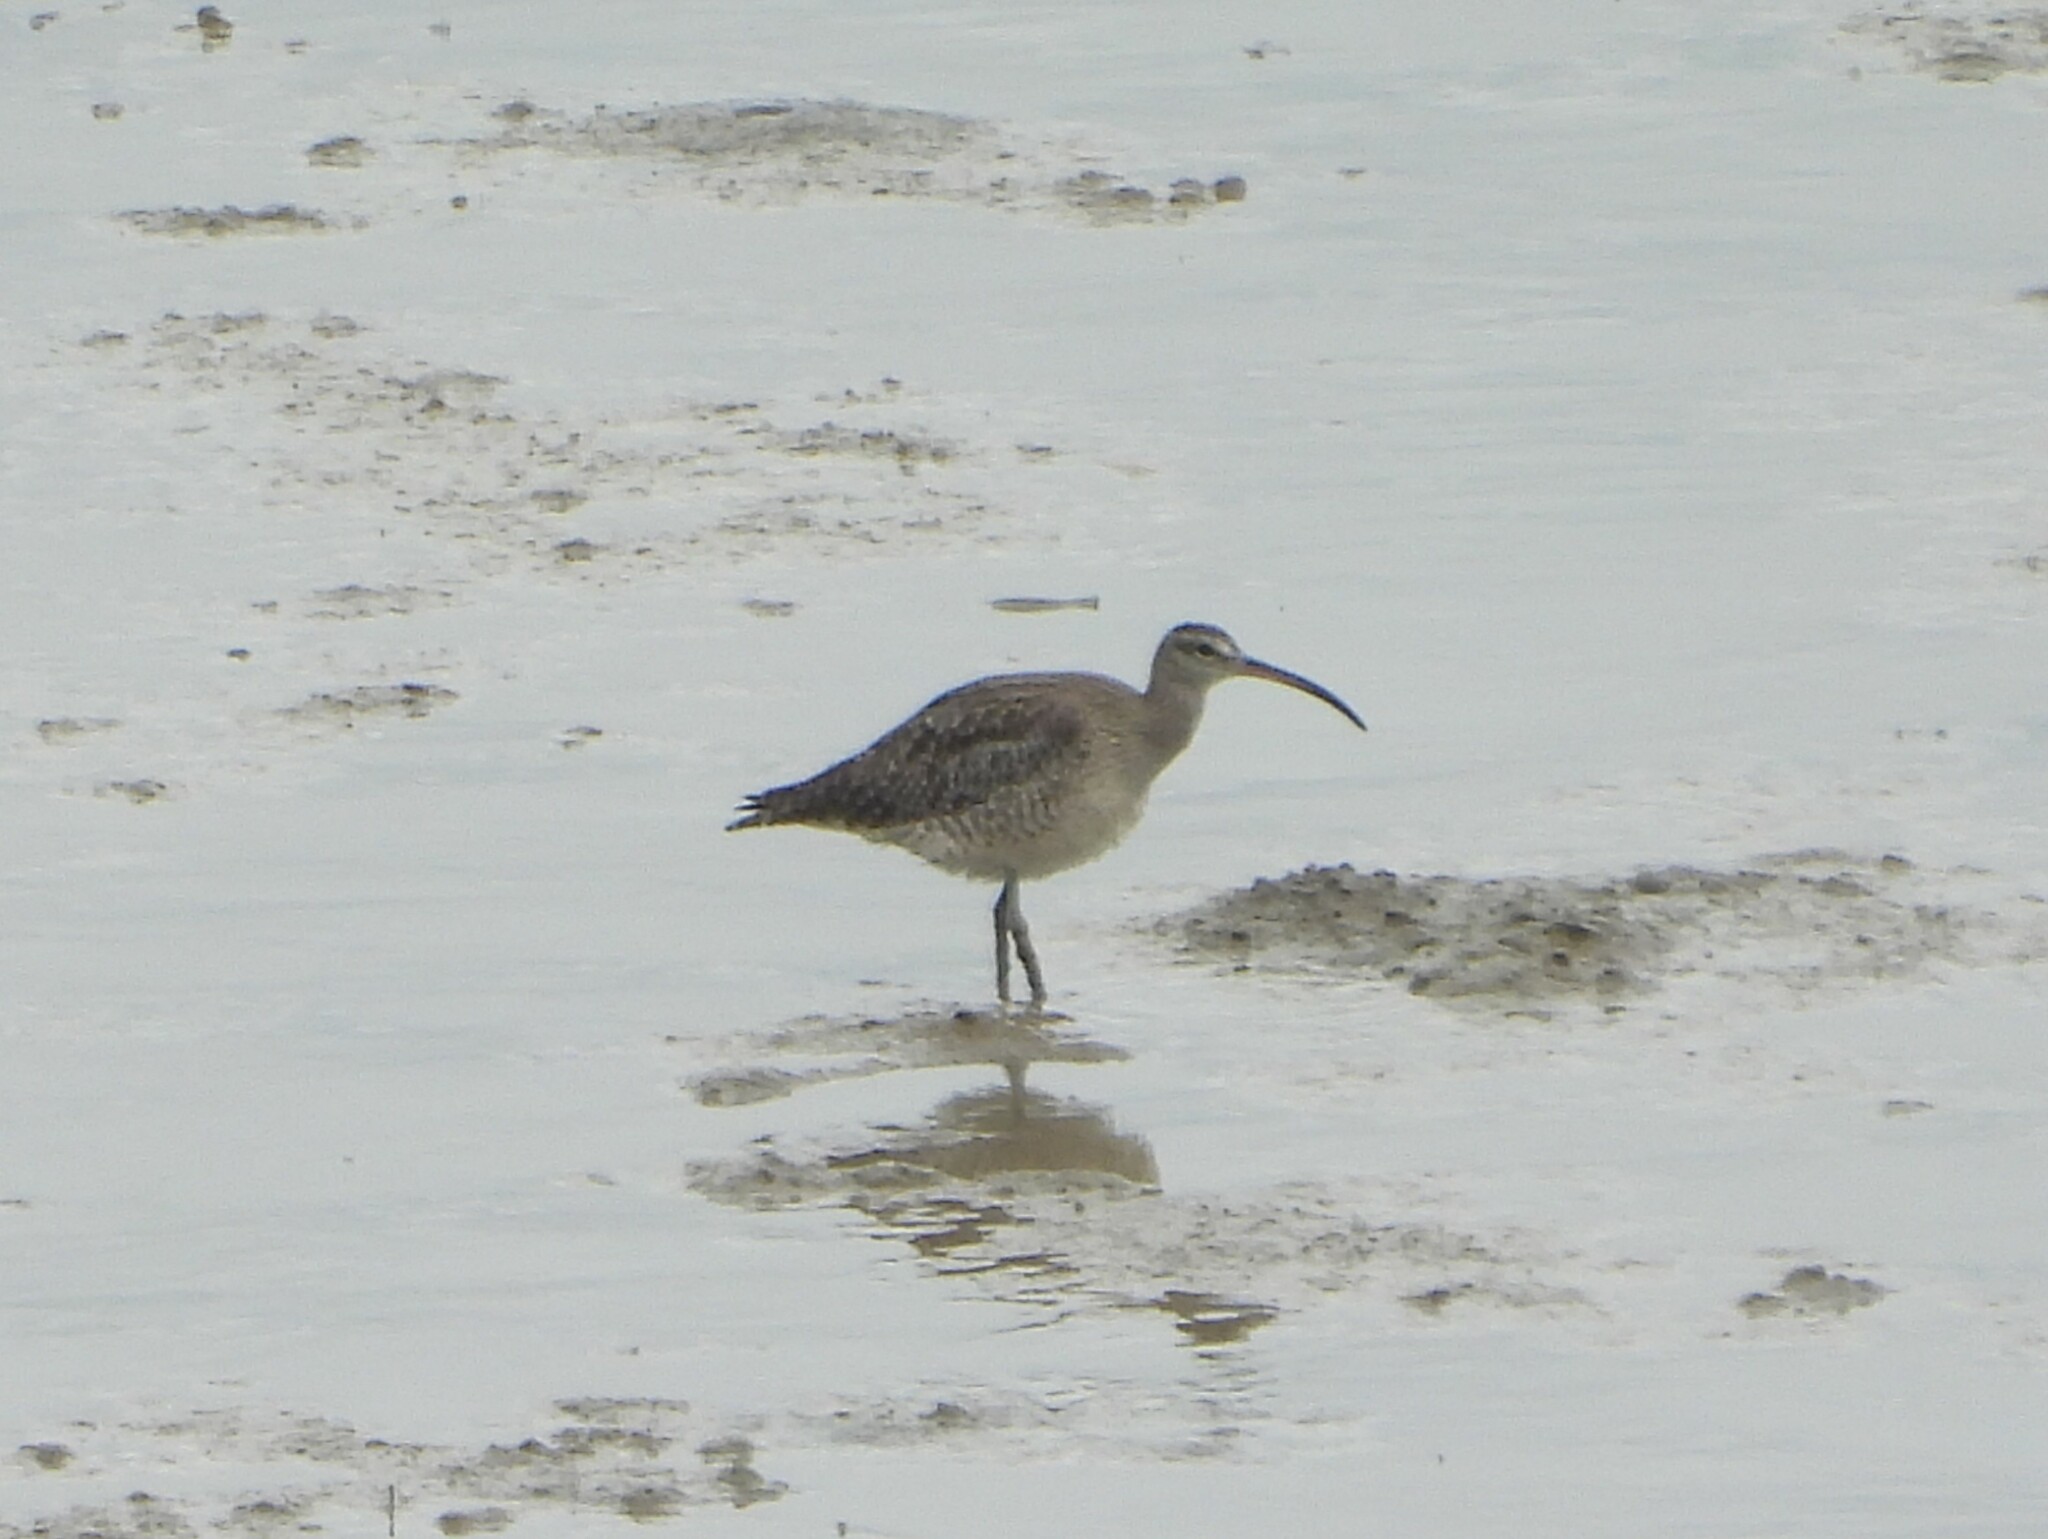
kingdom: Animalia
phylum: Chordata
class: Aves
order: Charadriiformes
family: Scolopacidae
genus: Numenius
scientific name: Numenius phaeopus
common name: Whimbrel
